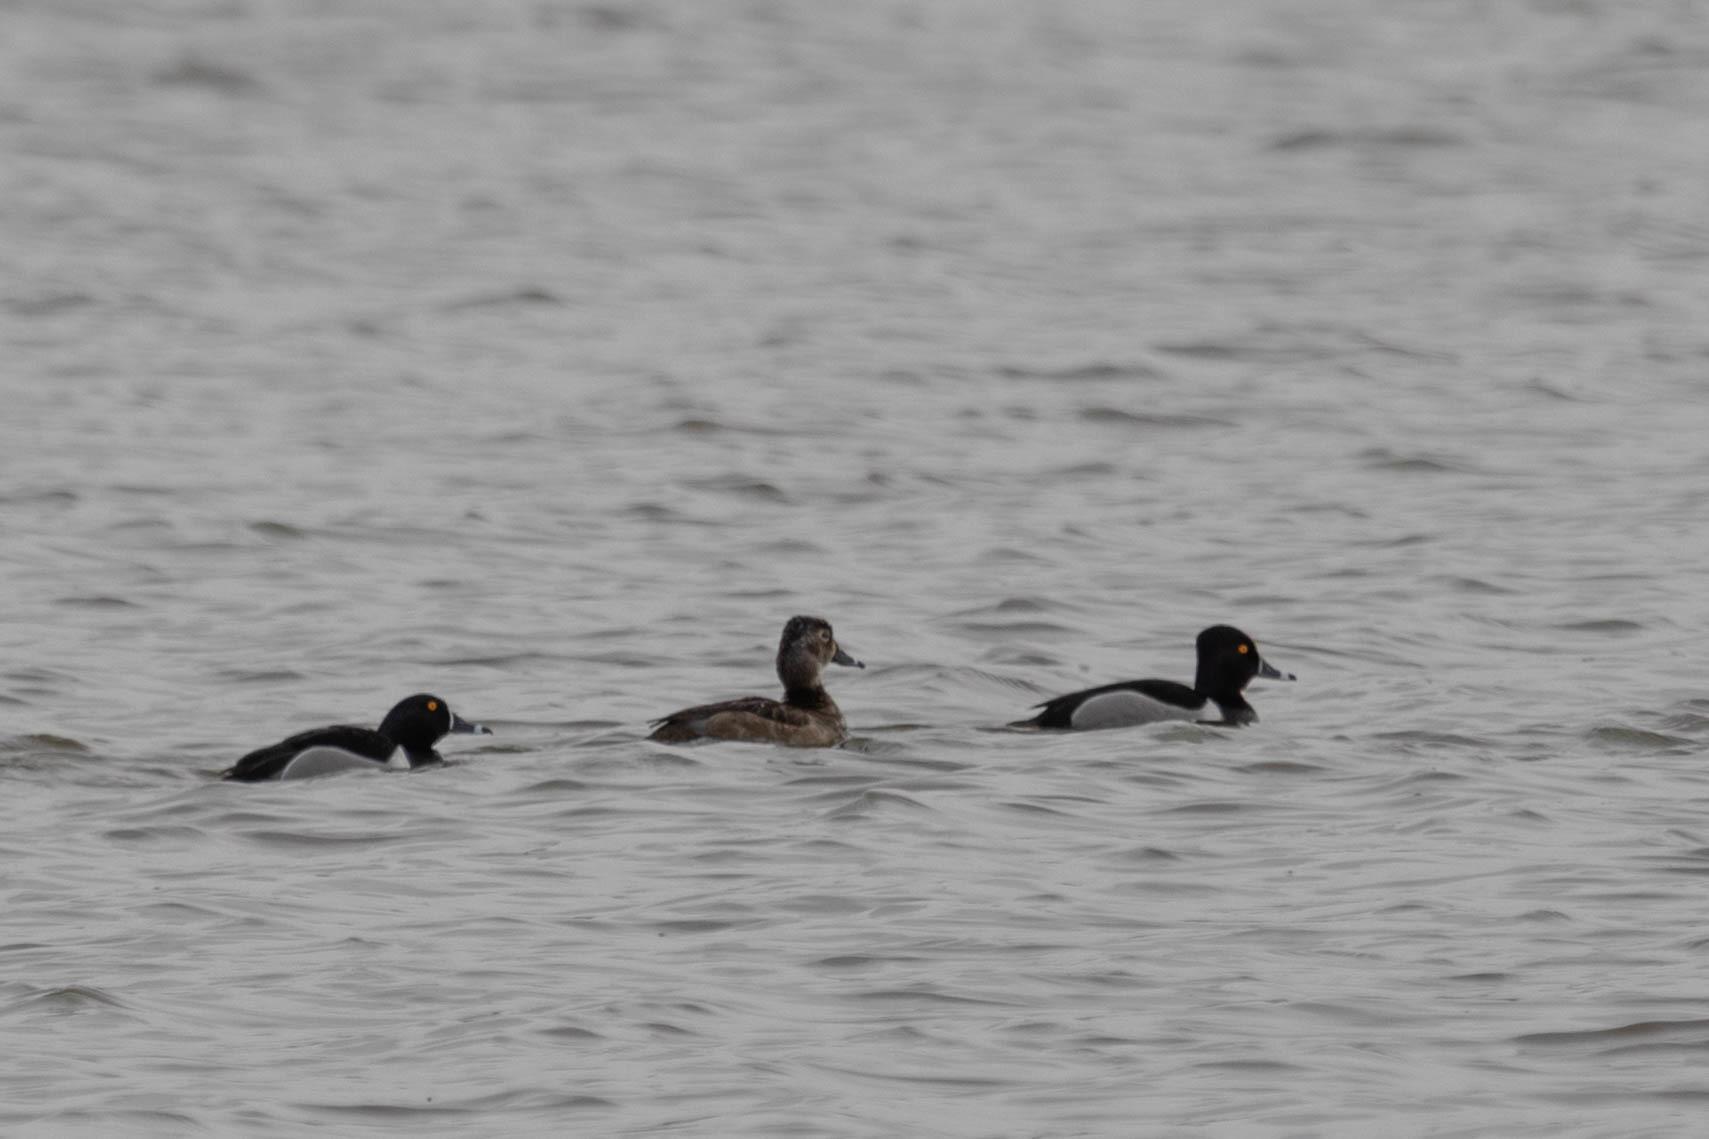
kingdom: Animalia
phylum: Chordata
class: Aves
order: Anseriformes
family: Anatidae
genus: Aythya
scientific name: Aythya collaris
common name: Ring-necked duck
